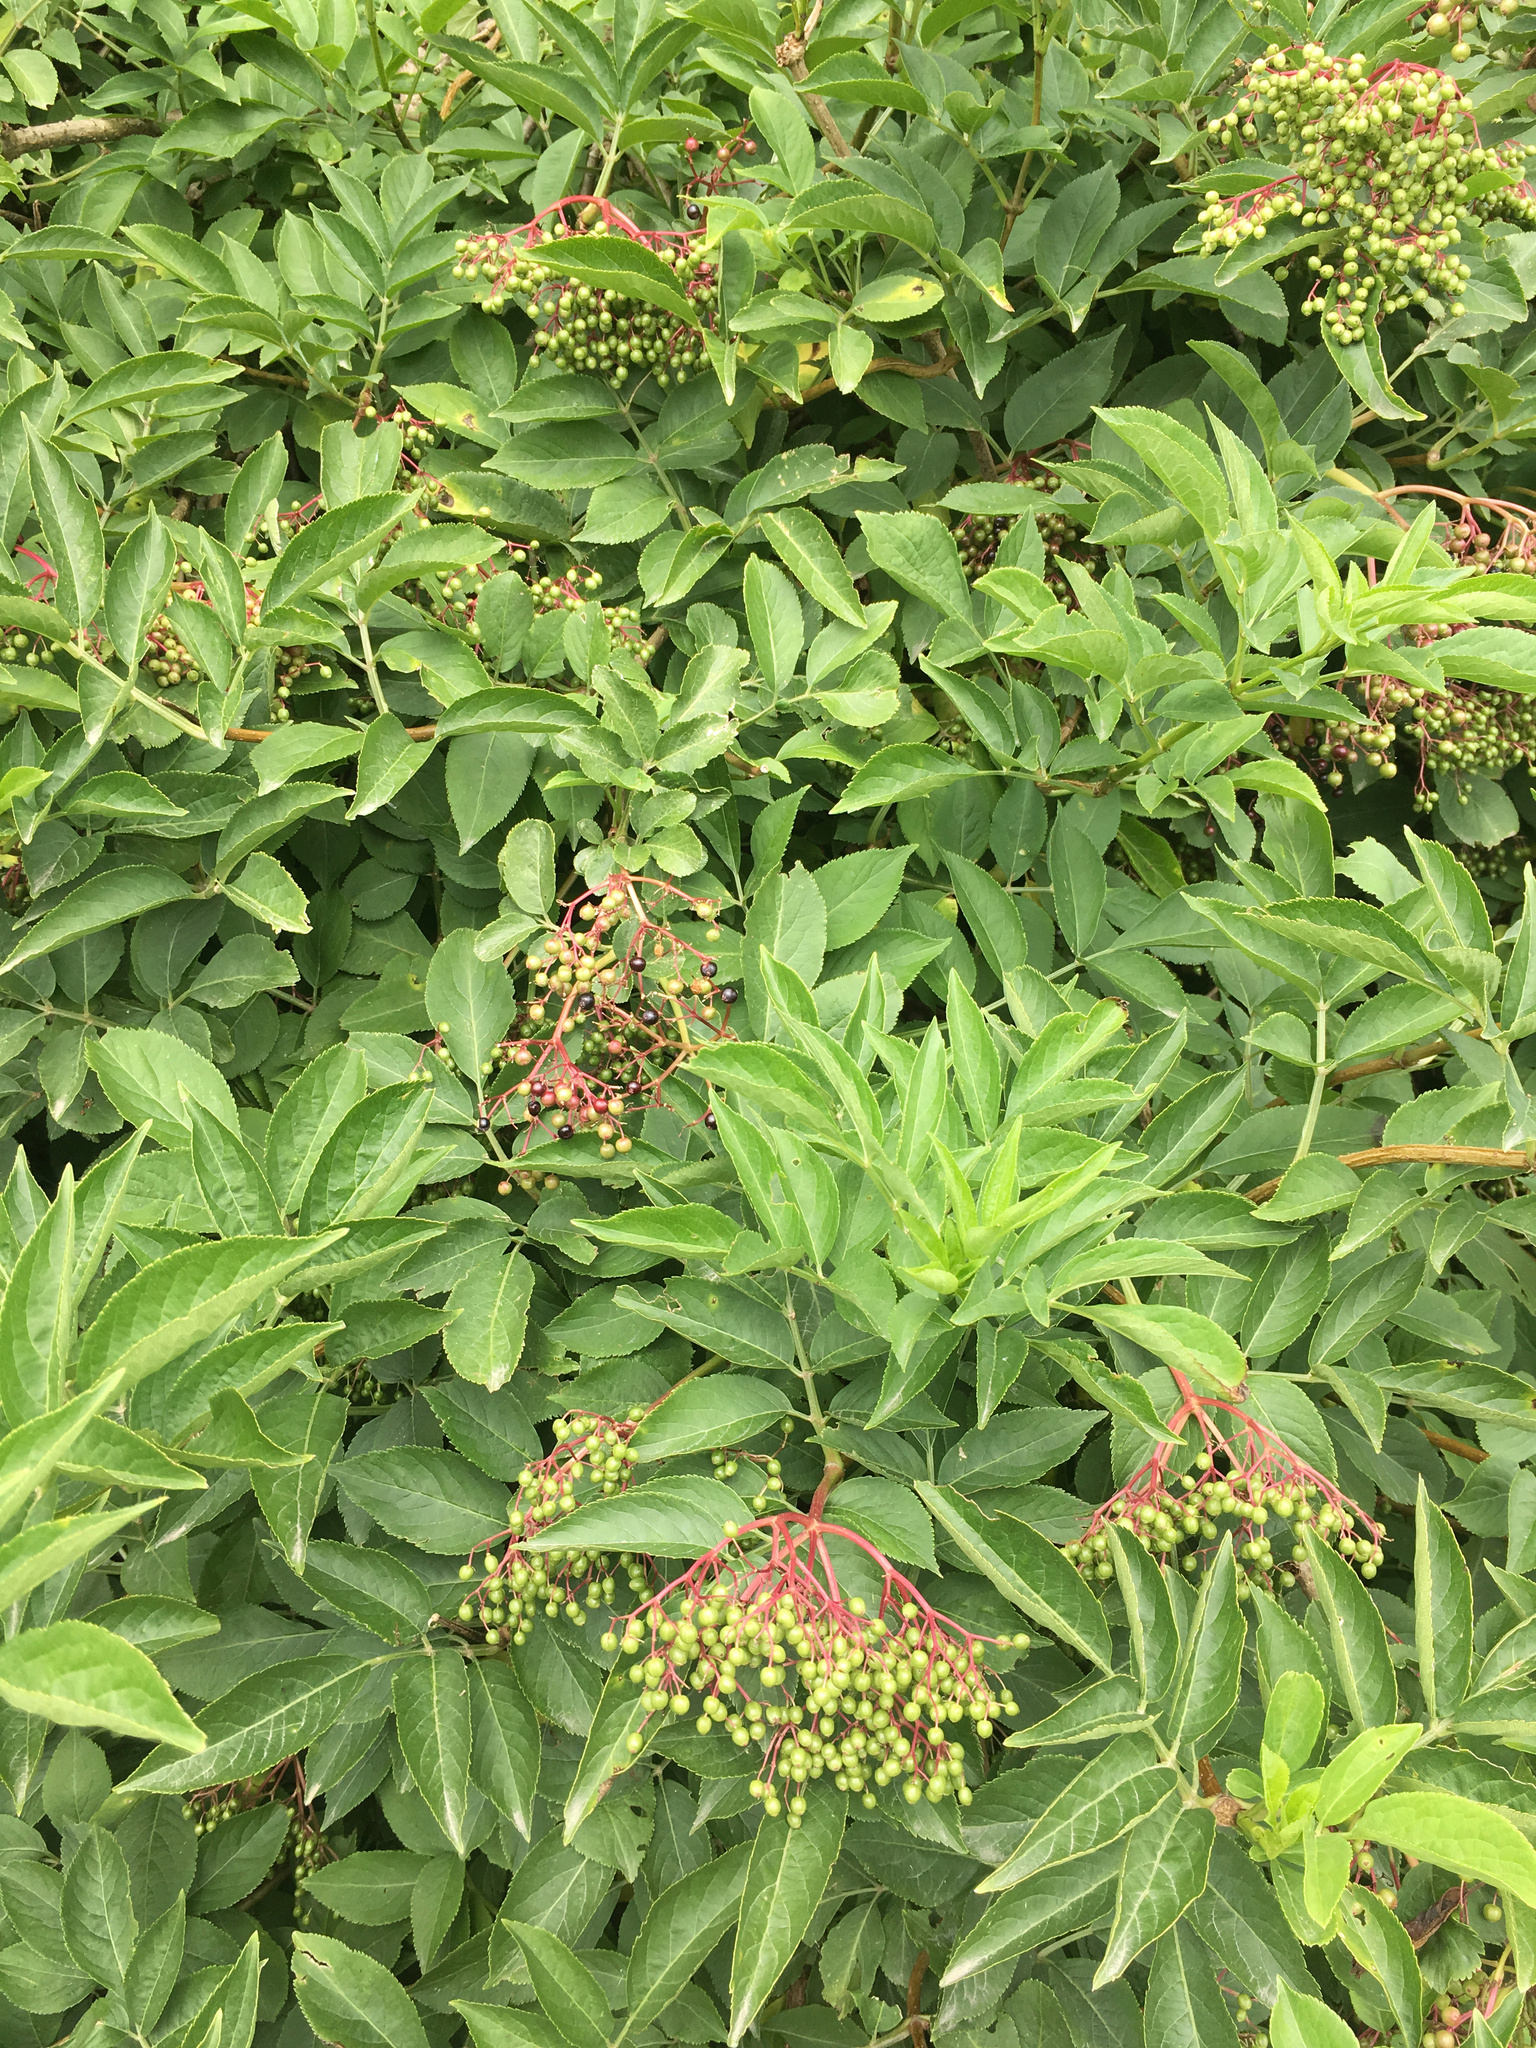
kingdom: Plantae
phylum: Tracheophyta
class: Magnoliopsida
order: Dipsacales
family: Viburnaceae
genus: Sambucus
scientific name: Sambucus nigra
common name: Elder
